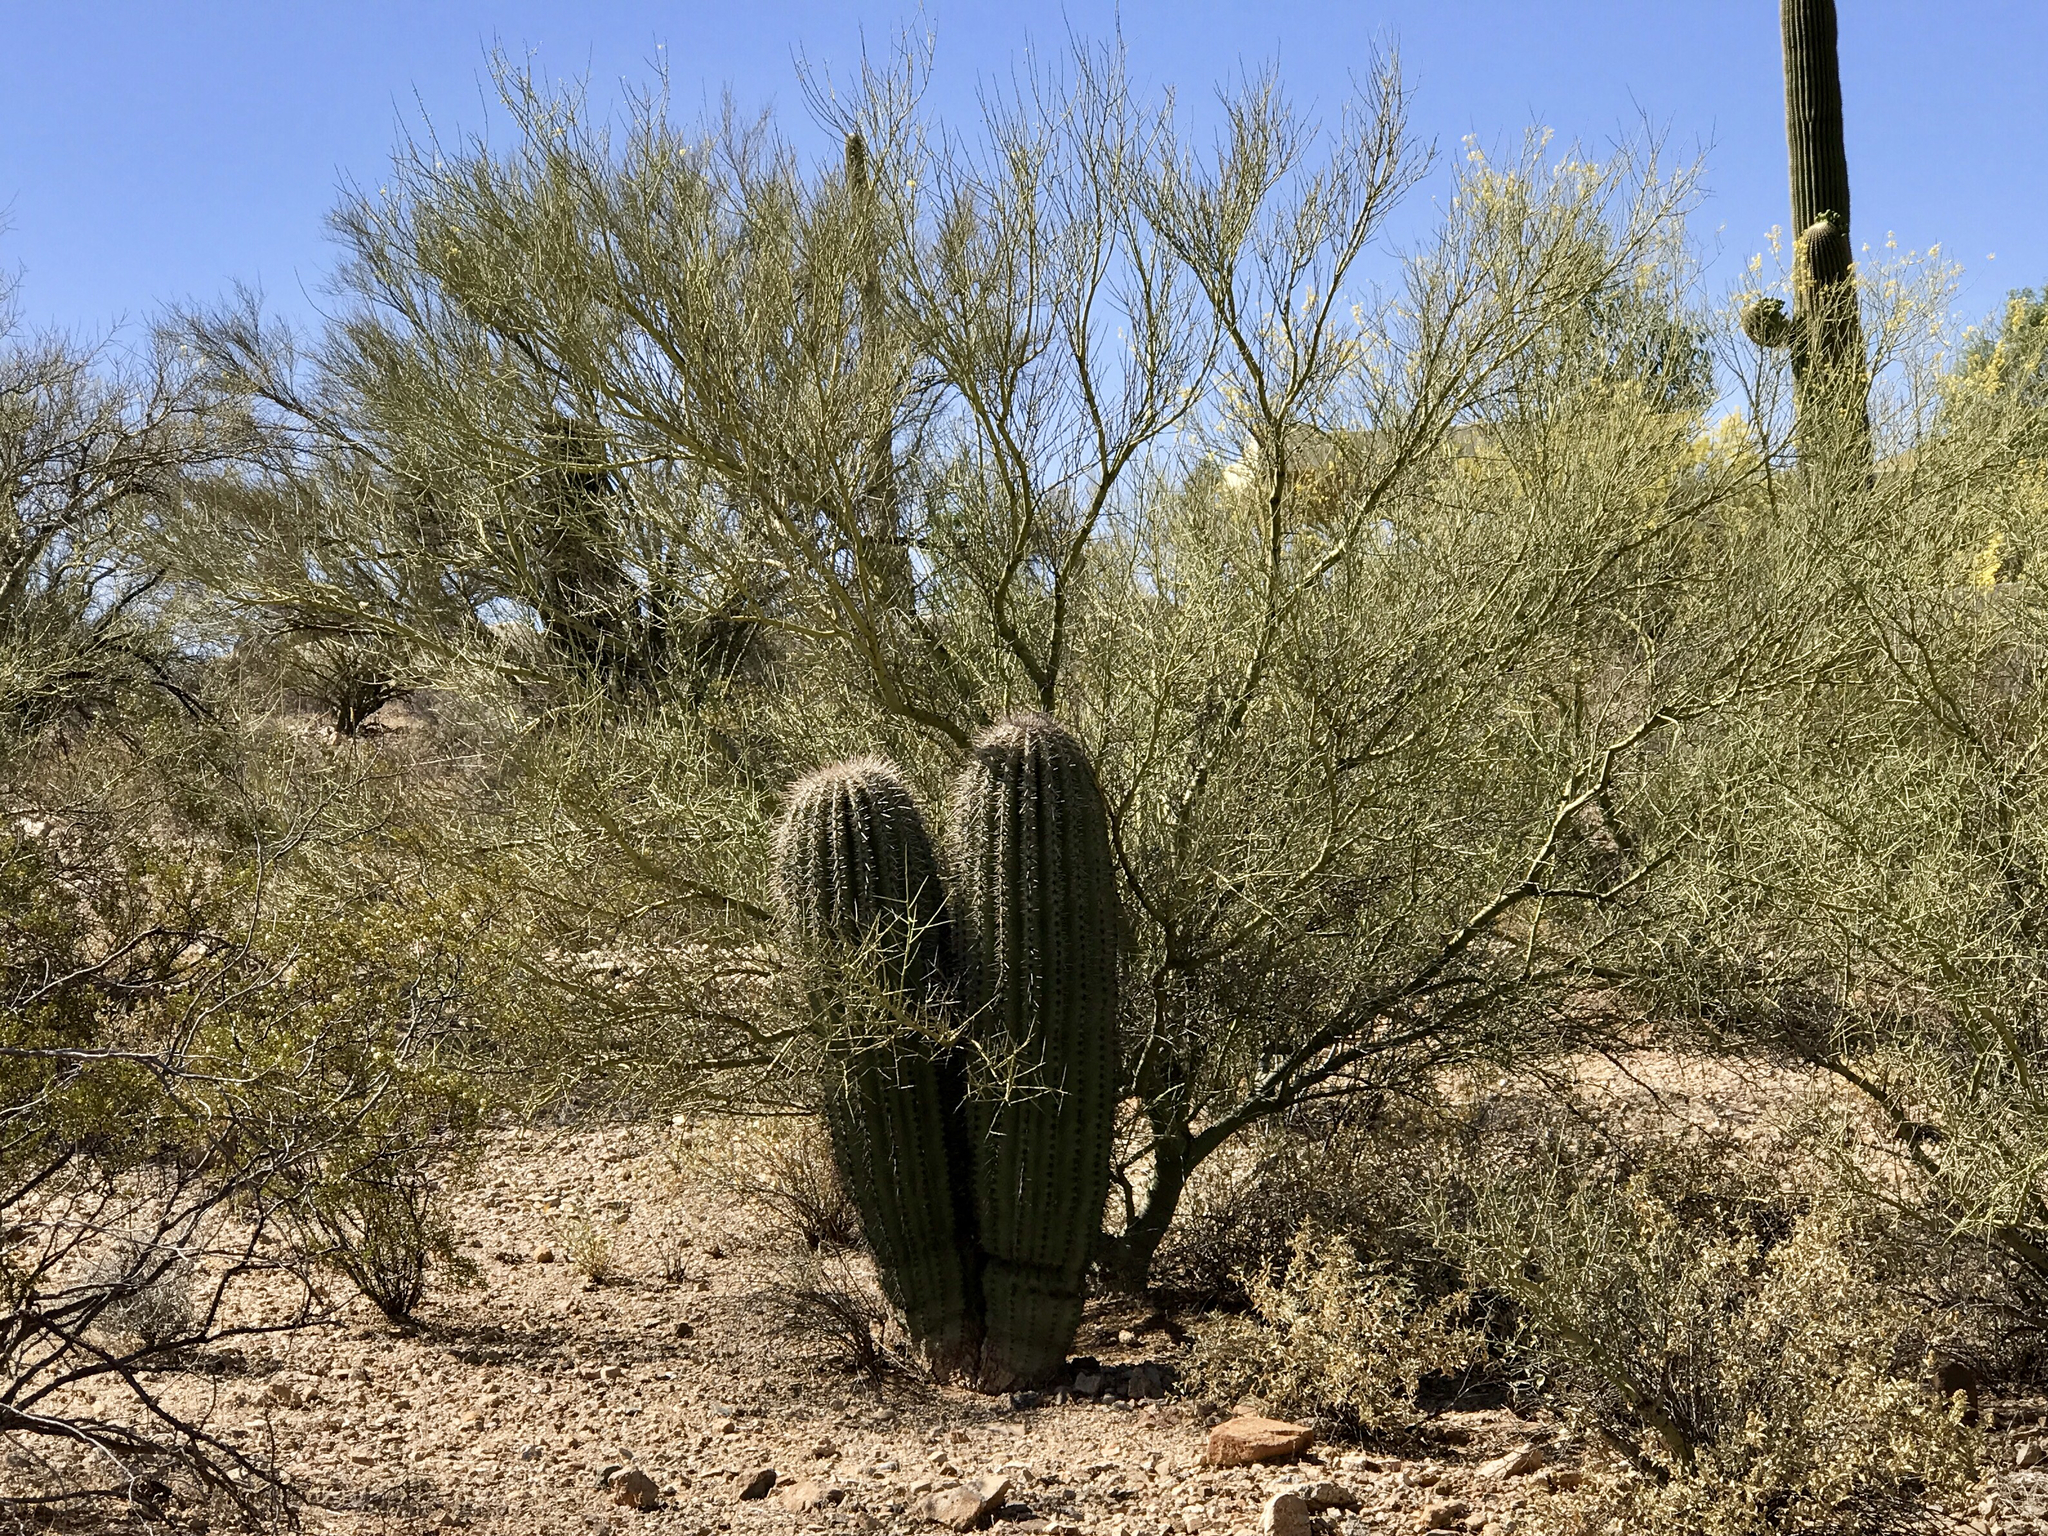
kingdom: Plantae
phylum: Tracheophyta
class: Magnoliopsida
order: Caryophyllales
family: Cactaceae
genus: Carnegiea
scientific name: Carnegiea gigantea
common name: Saguaro
